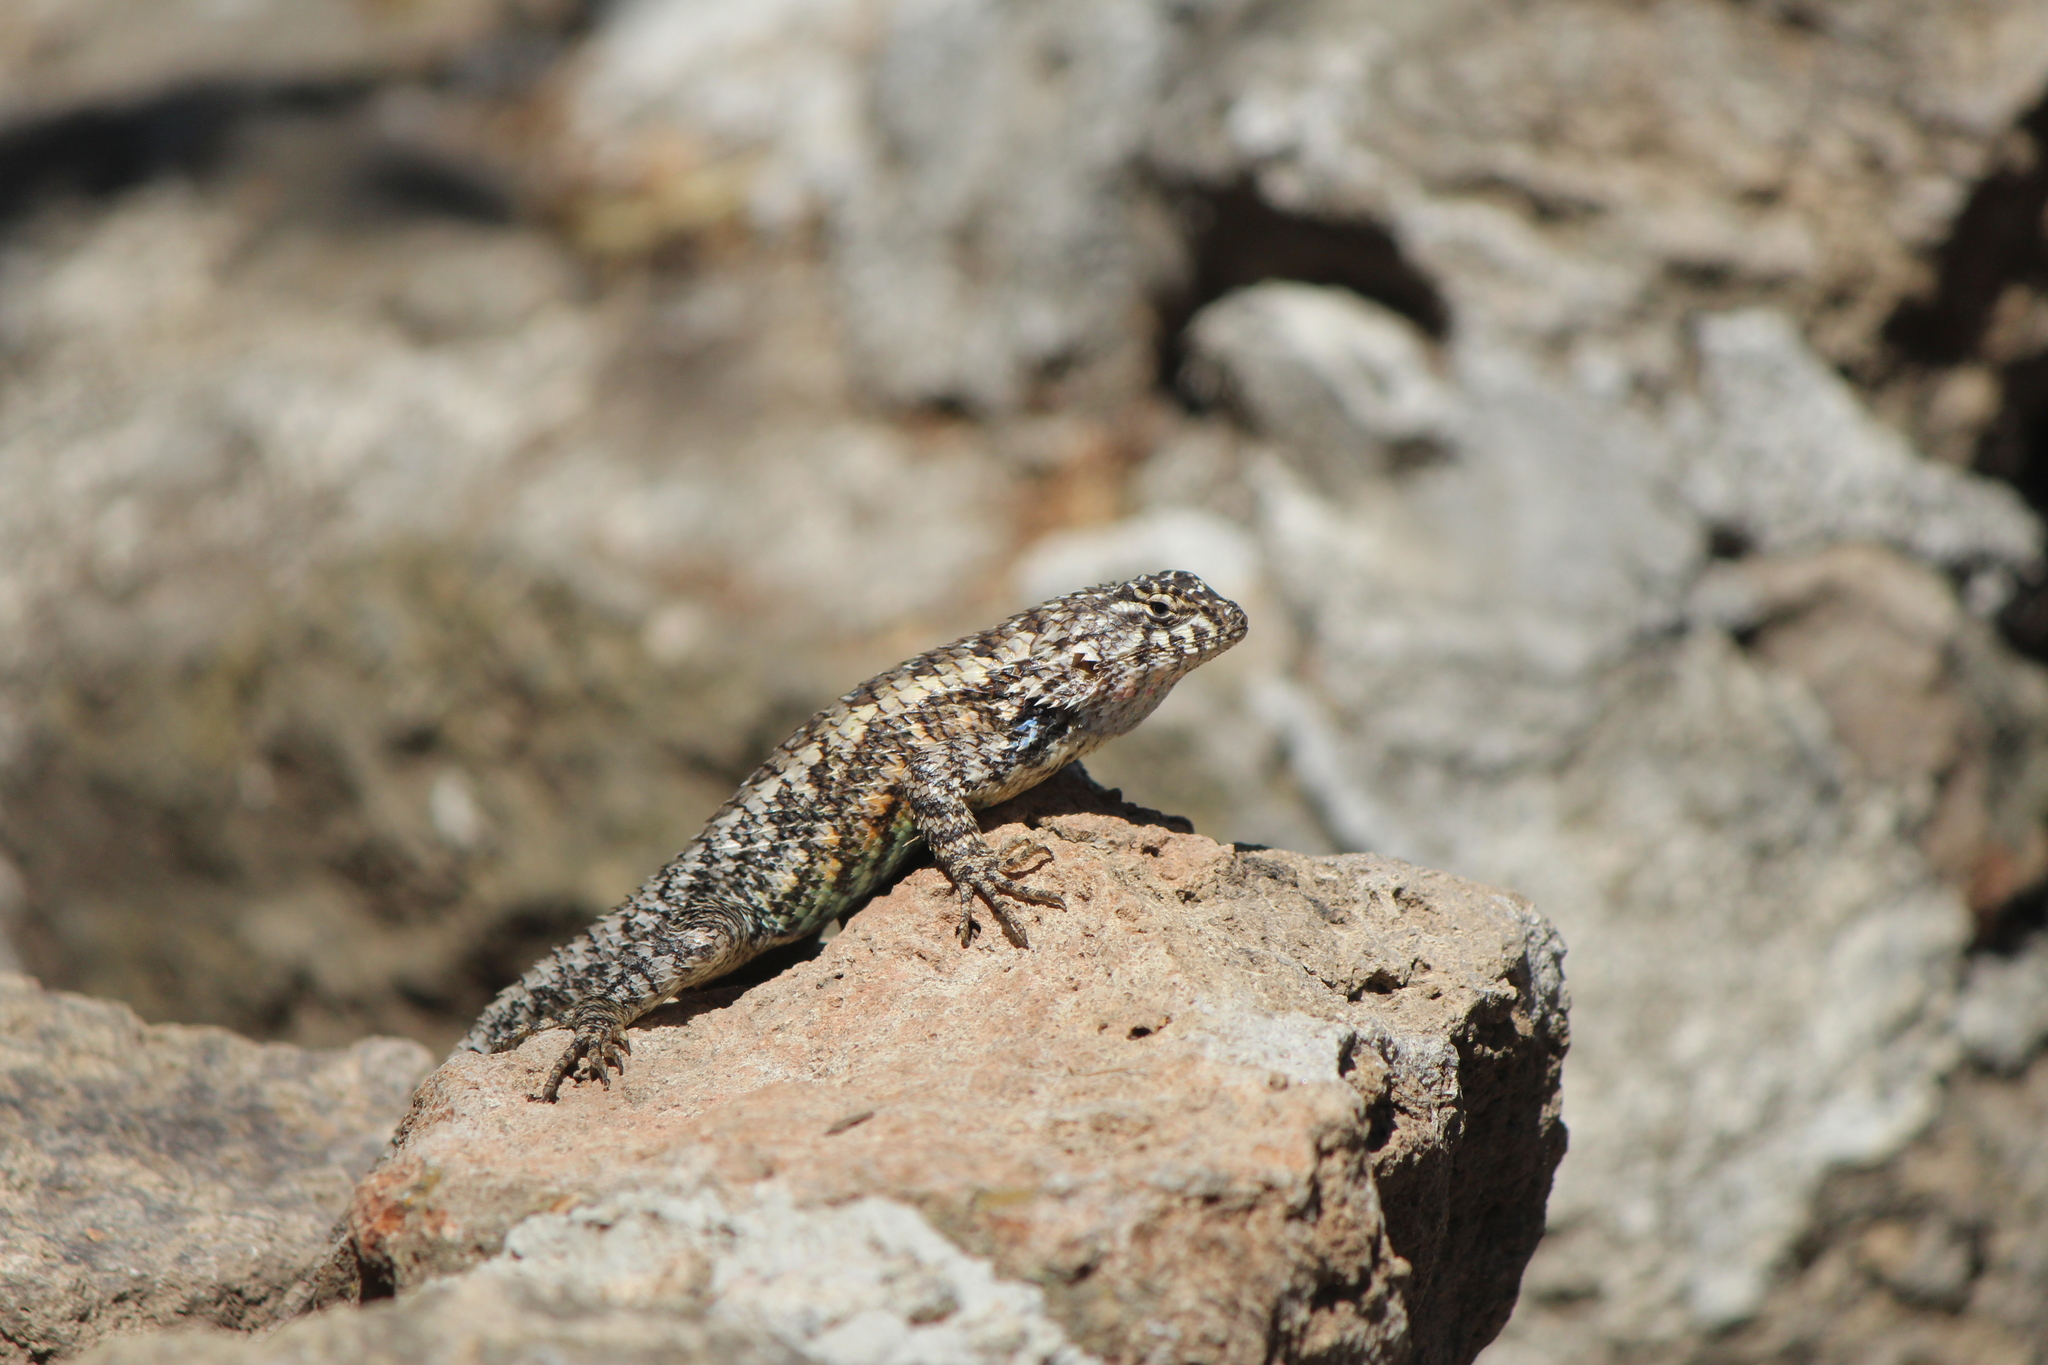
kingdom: Animalia
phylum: Chordata
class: Squamata
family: Phrynosomatidae
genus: Sceloporus
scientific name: Sceloporus spinosus
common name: Blue-spotted spiny lizard [caeruleopunctatus]
